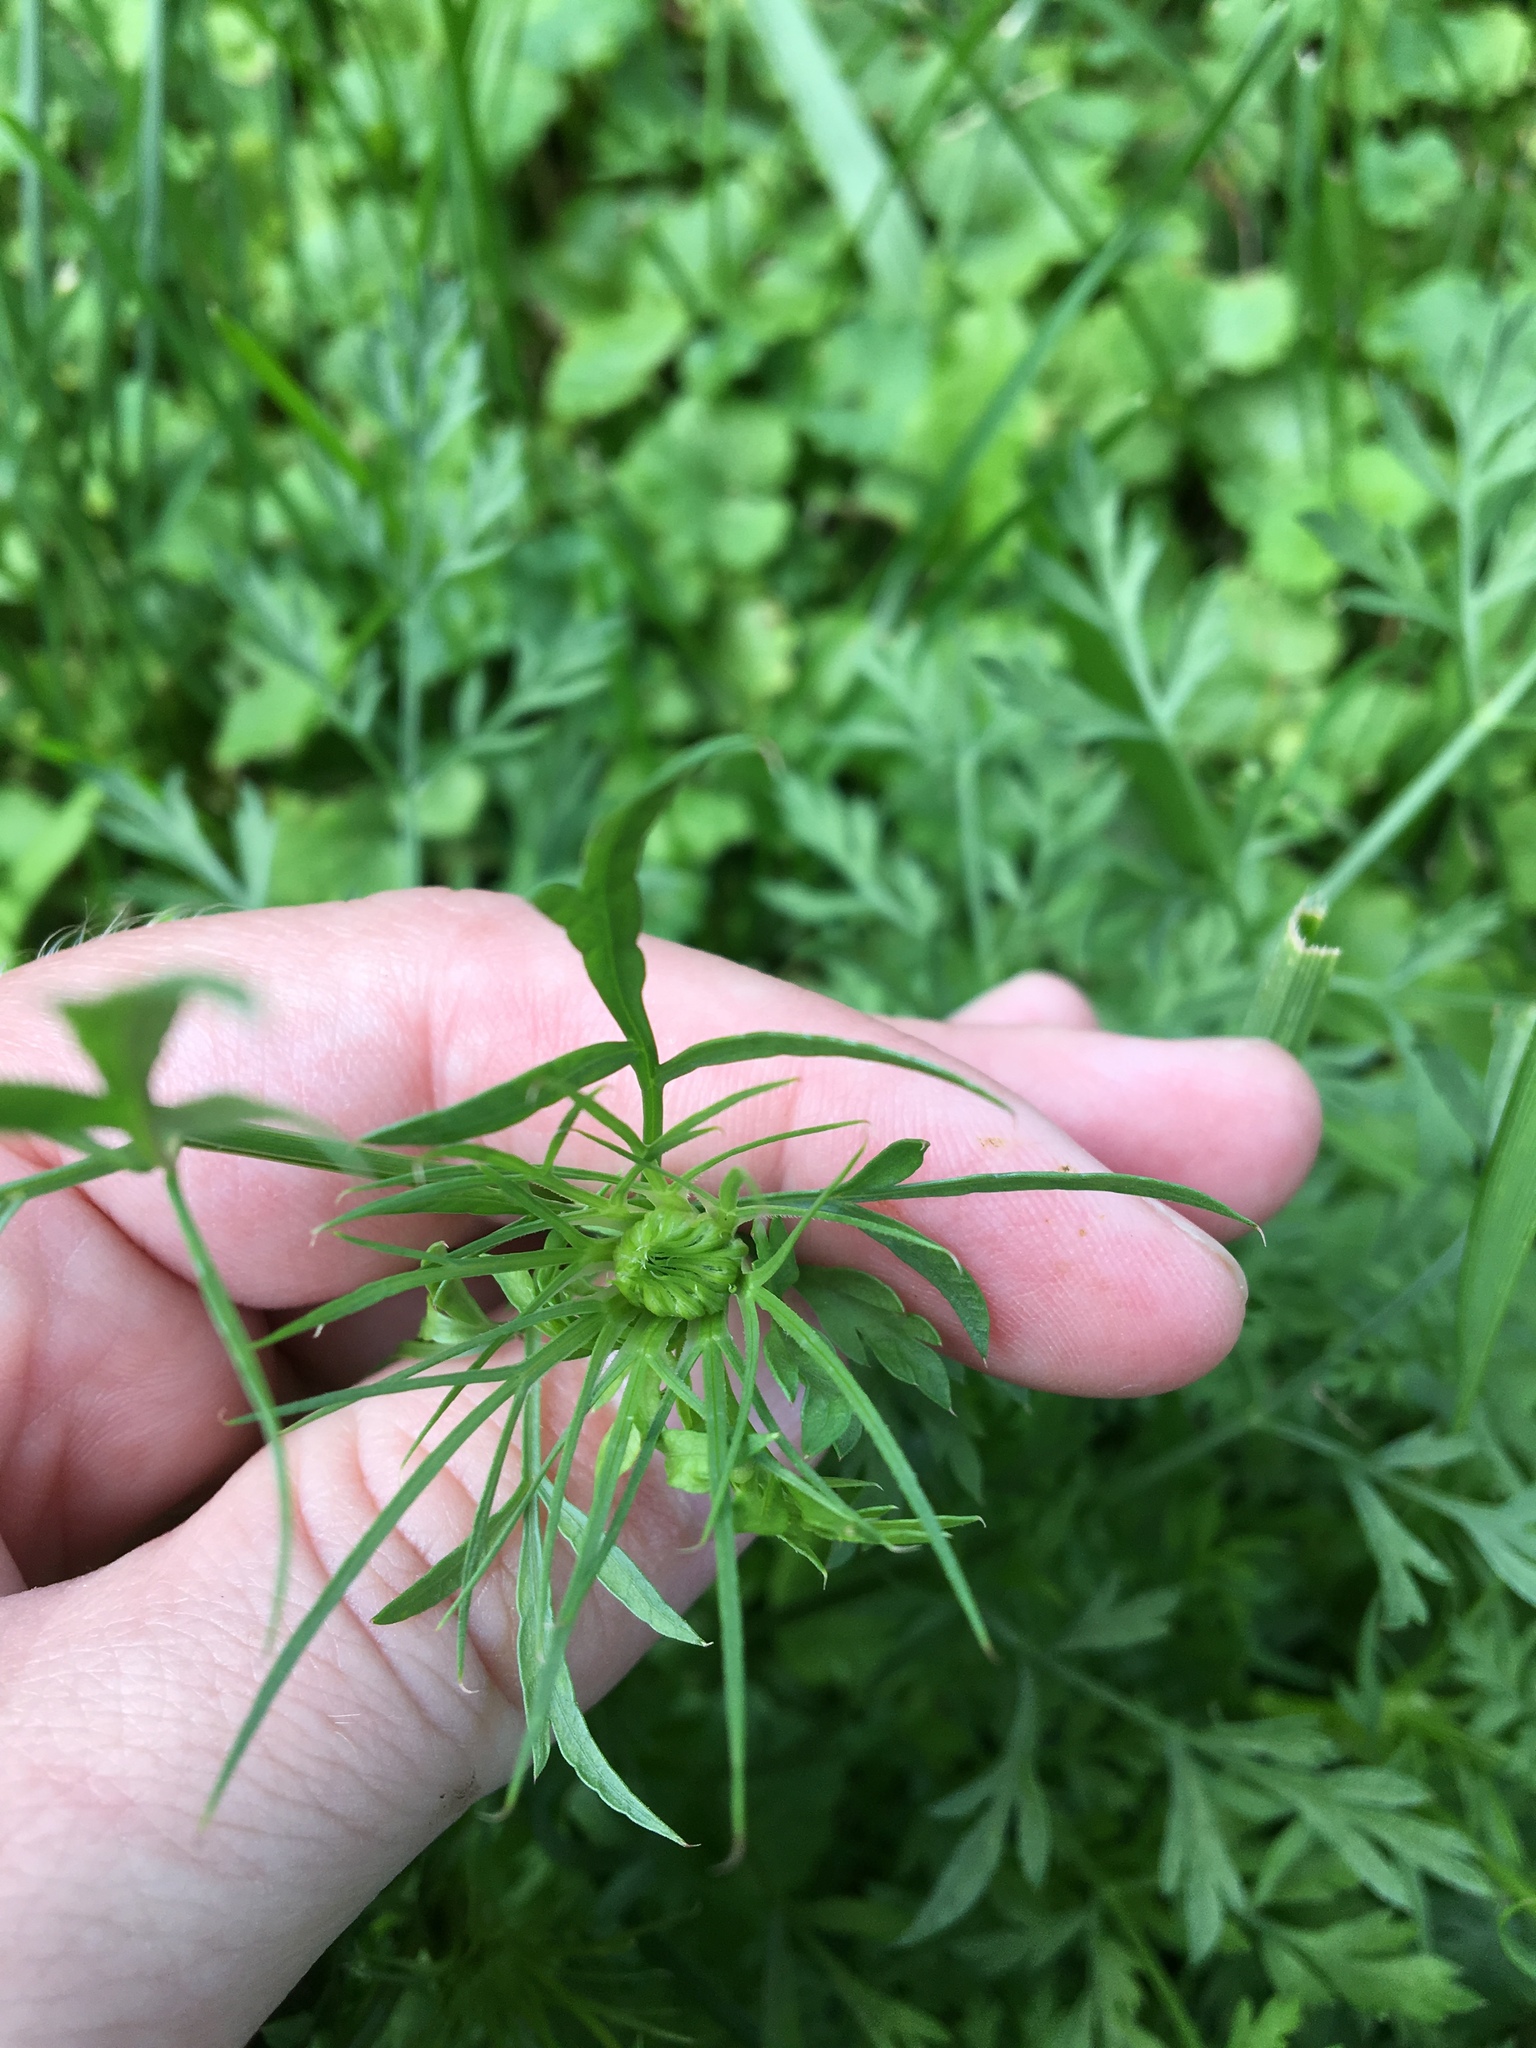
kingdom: Plantae
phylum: Tracheophyta
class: Magnoliopsida
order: Apiales
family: Apiaceae
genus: Daucus
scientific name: Daucus carota
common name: Wild carrot
